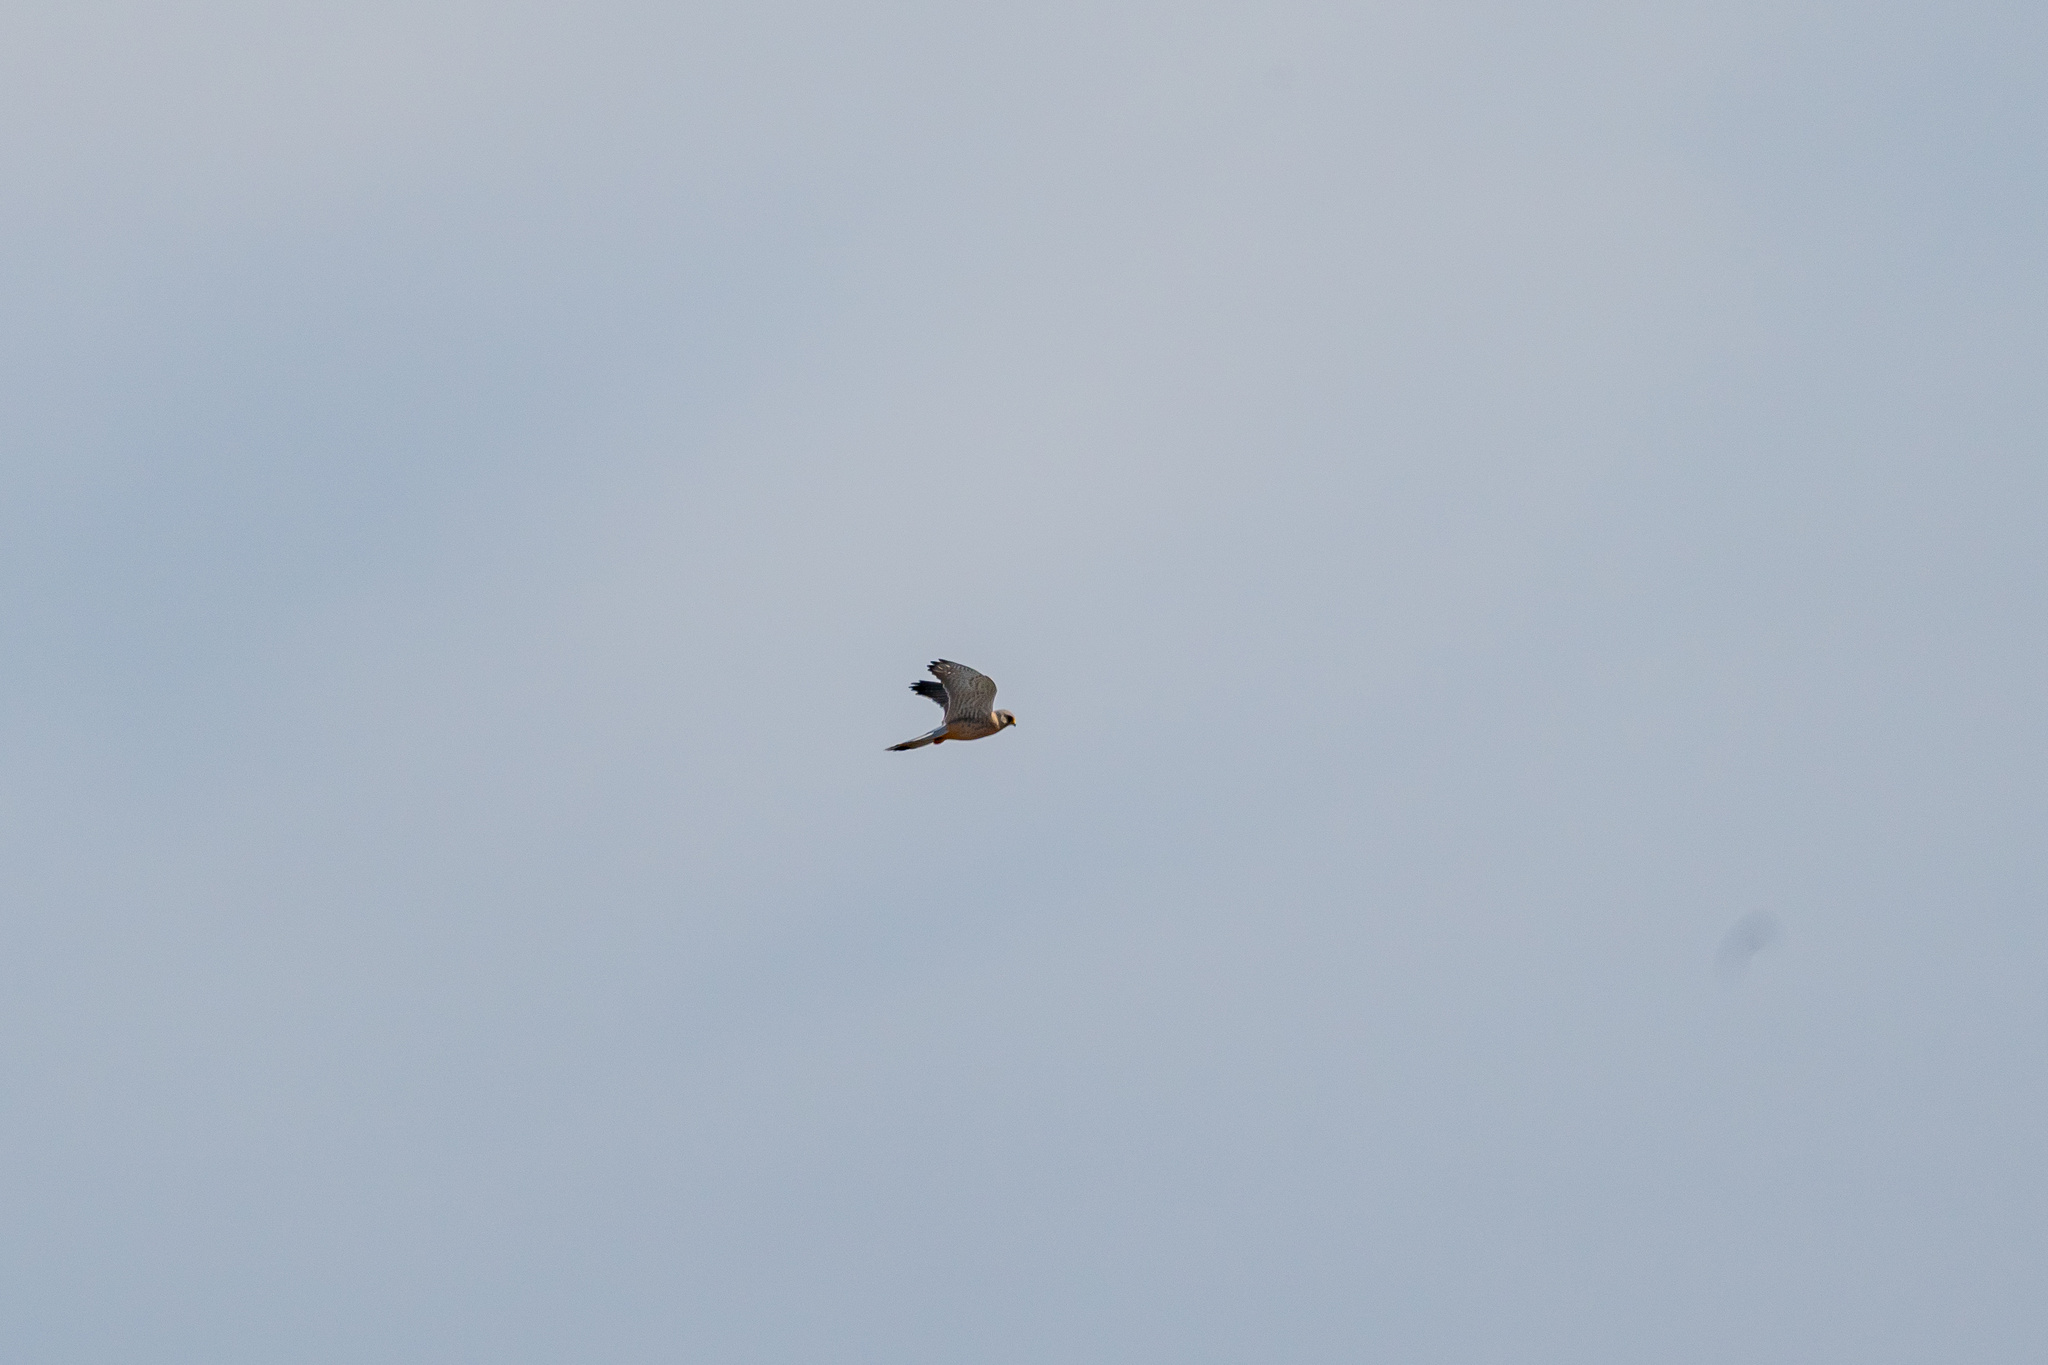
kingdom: Animalia
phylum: Chordata
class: Aves
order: Falconiformes
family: Falconidae
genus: Falco
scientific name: Falco tinnunculus
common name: Common kestrel
